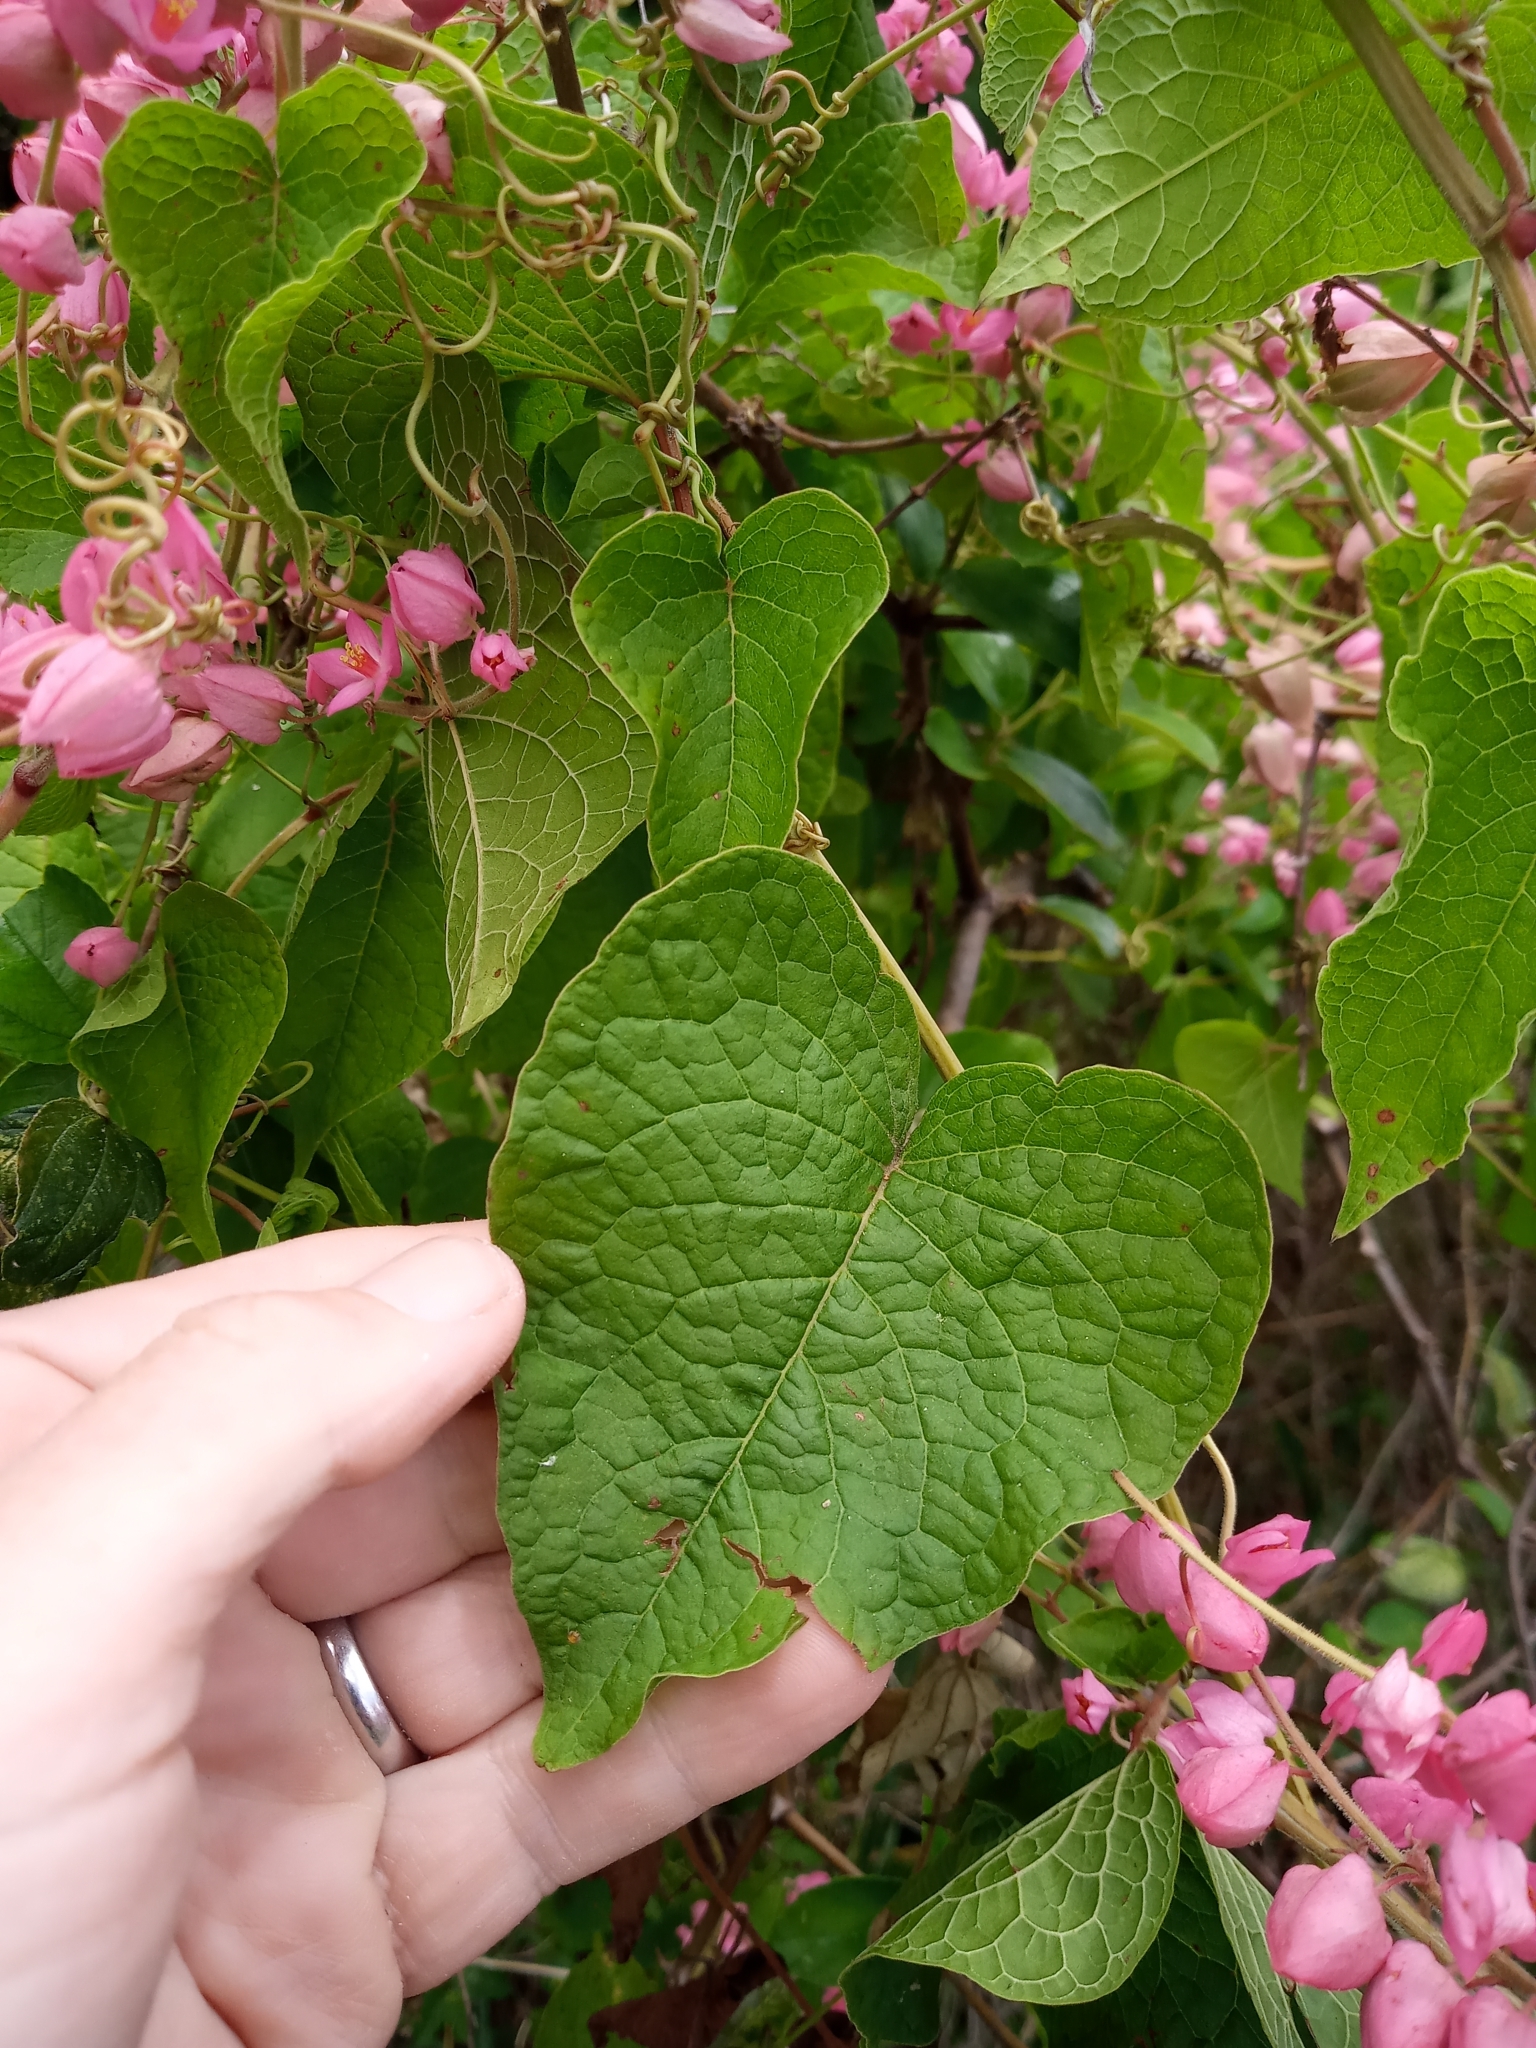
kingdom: Plantae
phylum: Tracheophyta
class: Magnoliopsida
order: Caryophyllales
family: Polygonaceae
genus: Antigonon
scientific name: Antigonon leptopus
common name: Coral vine
